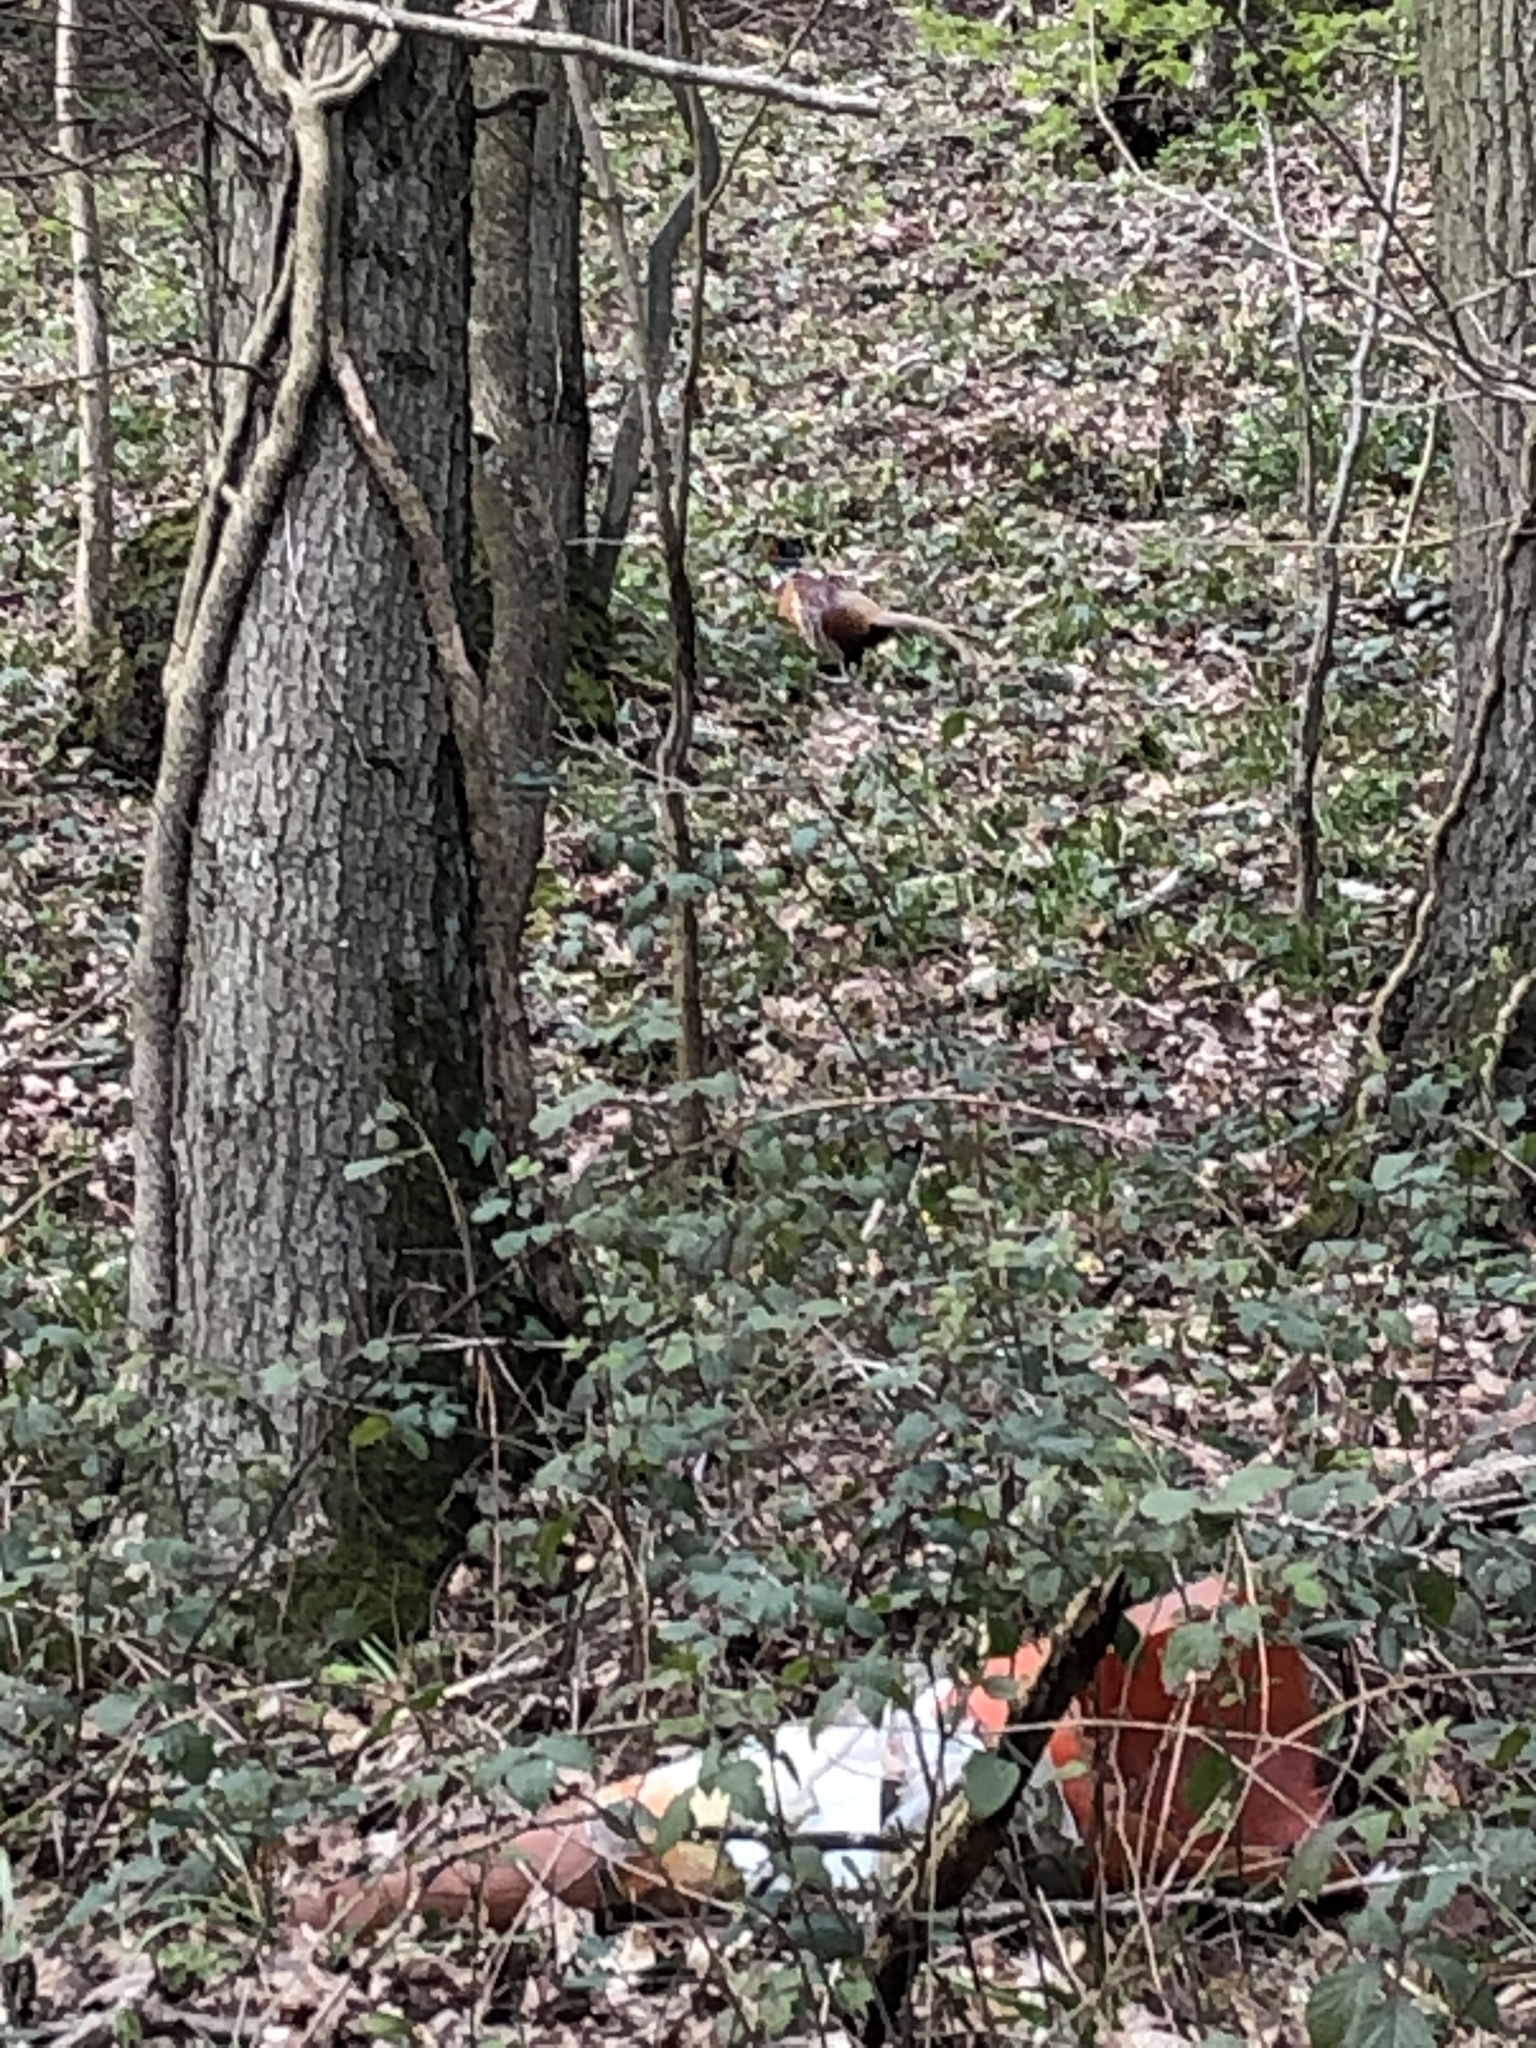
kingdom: Animalia
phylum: Chordata
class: Aves
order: Galliformes
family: Phasianidae
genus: Phasianus
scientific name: Phasianus colchicus
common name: Common pheasant
